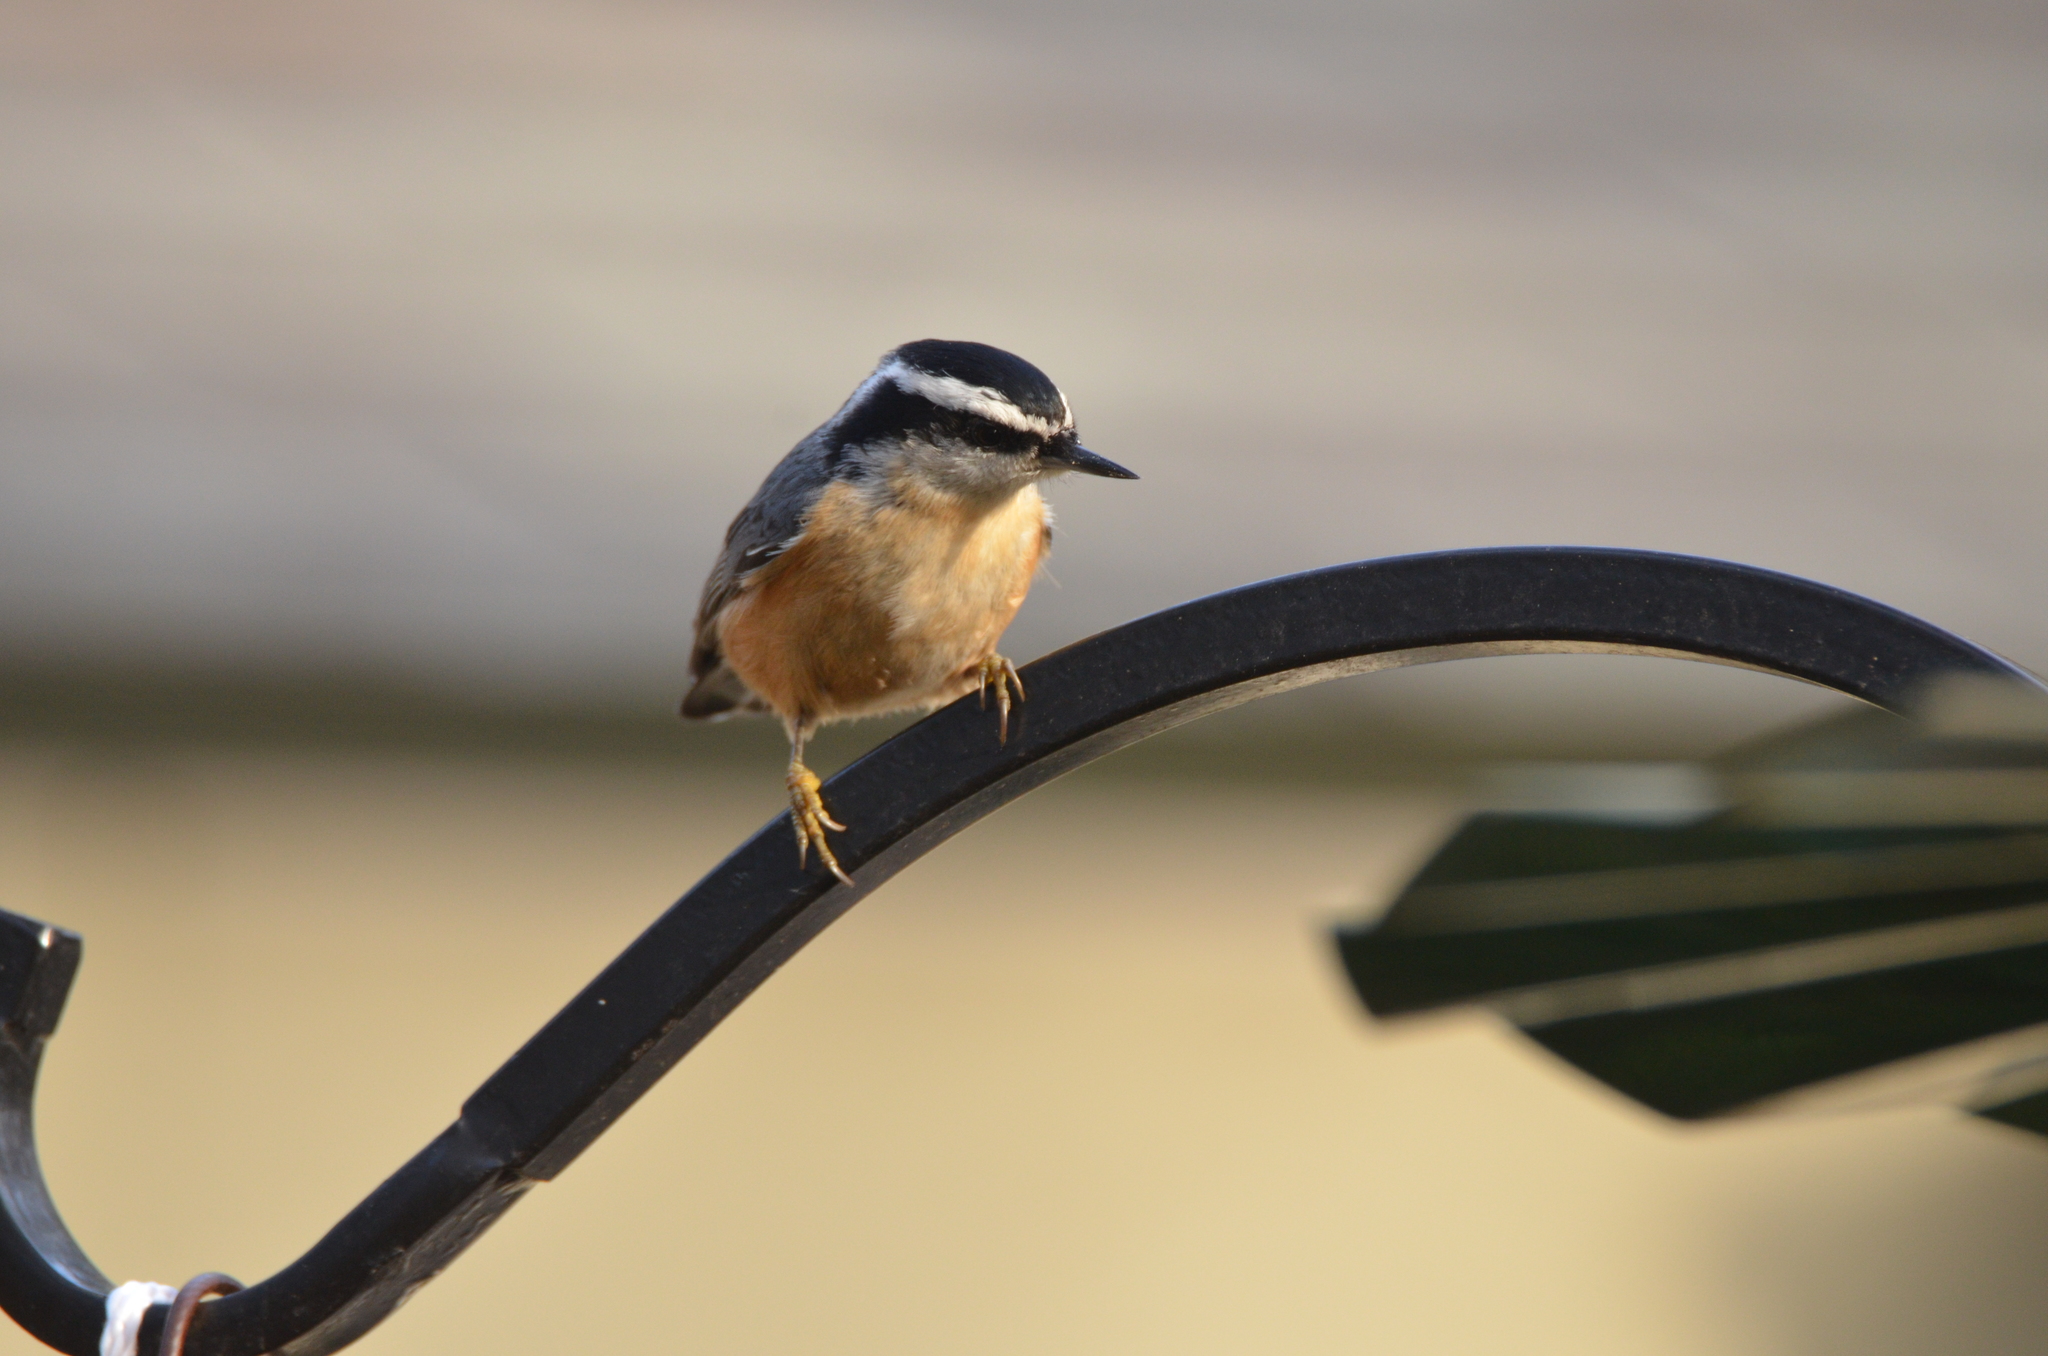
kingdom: Animalia
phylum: Chordata
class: Aves
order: Passeriformes
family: Sittidae
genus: Sitta
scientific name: Sitta canadensis
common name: Red-breasted nuthatch
